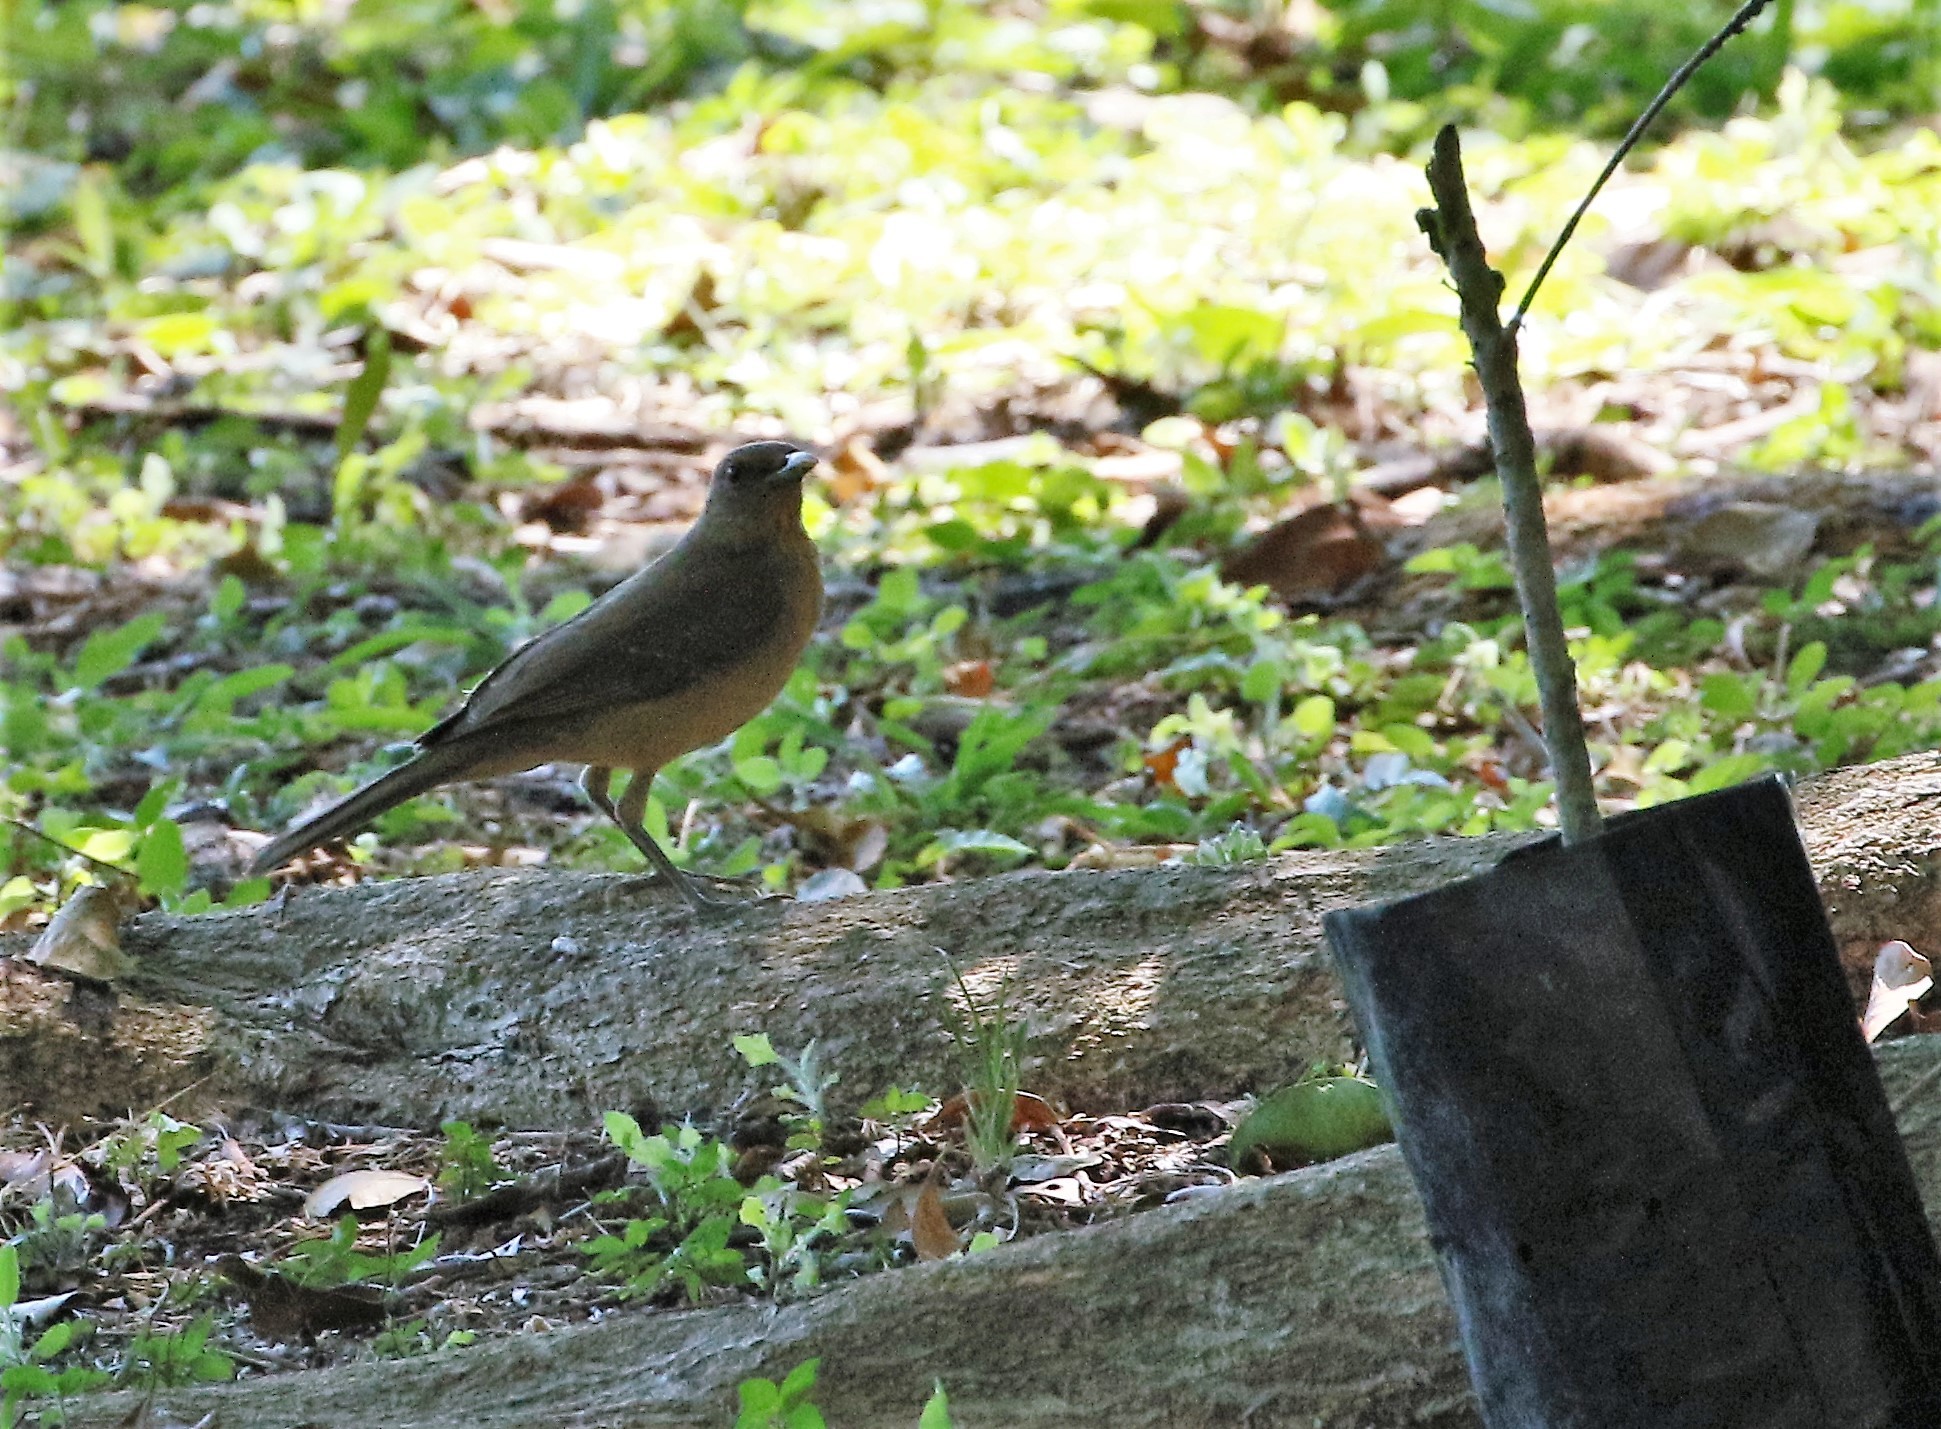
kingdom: Animalia
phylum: Chordata
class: Aves
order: Passeriformes
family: Turdidae
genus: Turdus
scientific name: Turdus grayi
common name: Clay-colored thrush
